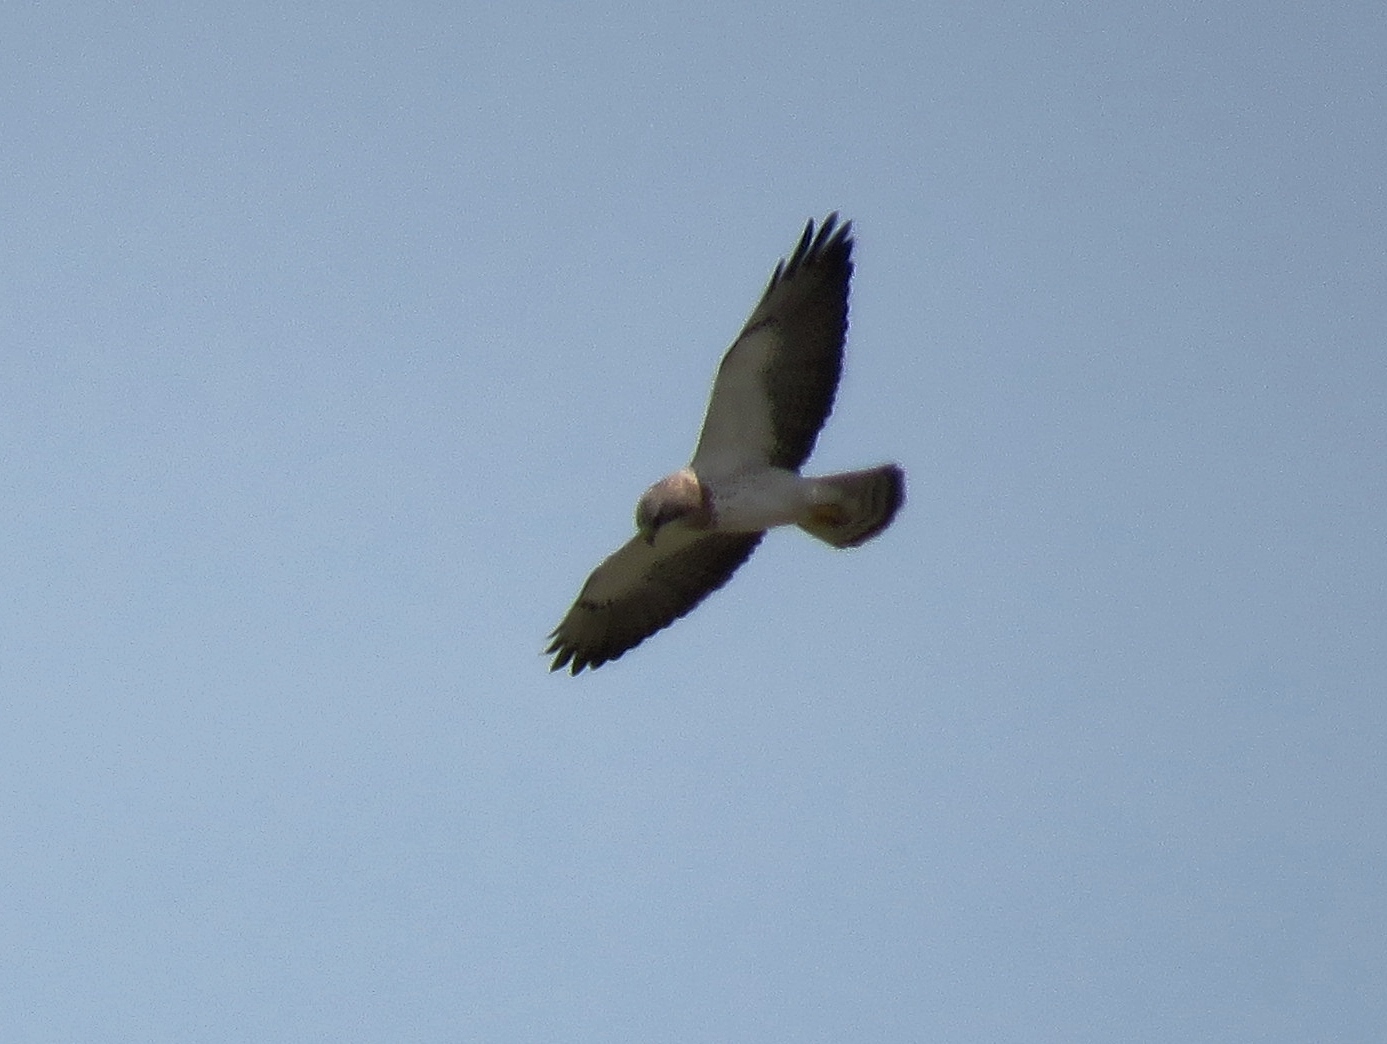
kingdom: Animalia
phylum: Chordata
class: Aves
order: Accipitriformes
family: Accipitridae
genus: Buteo
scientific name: Buteo swainsoni
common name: Swainson's hawk
